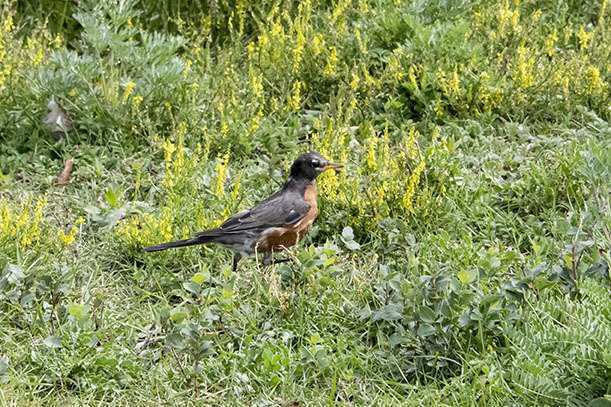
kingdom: Animalia
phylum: Chordata
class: Aves
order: Passeriformes
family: Turdidae
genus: Turdus
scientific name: Turdus migratorius
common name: American robin
